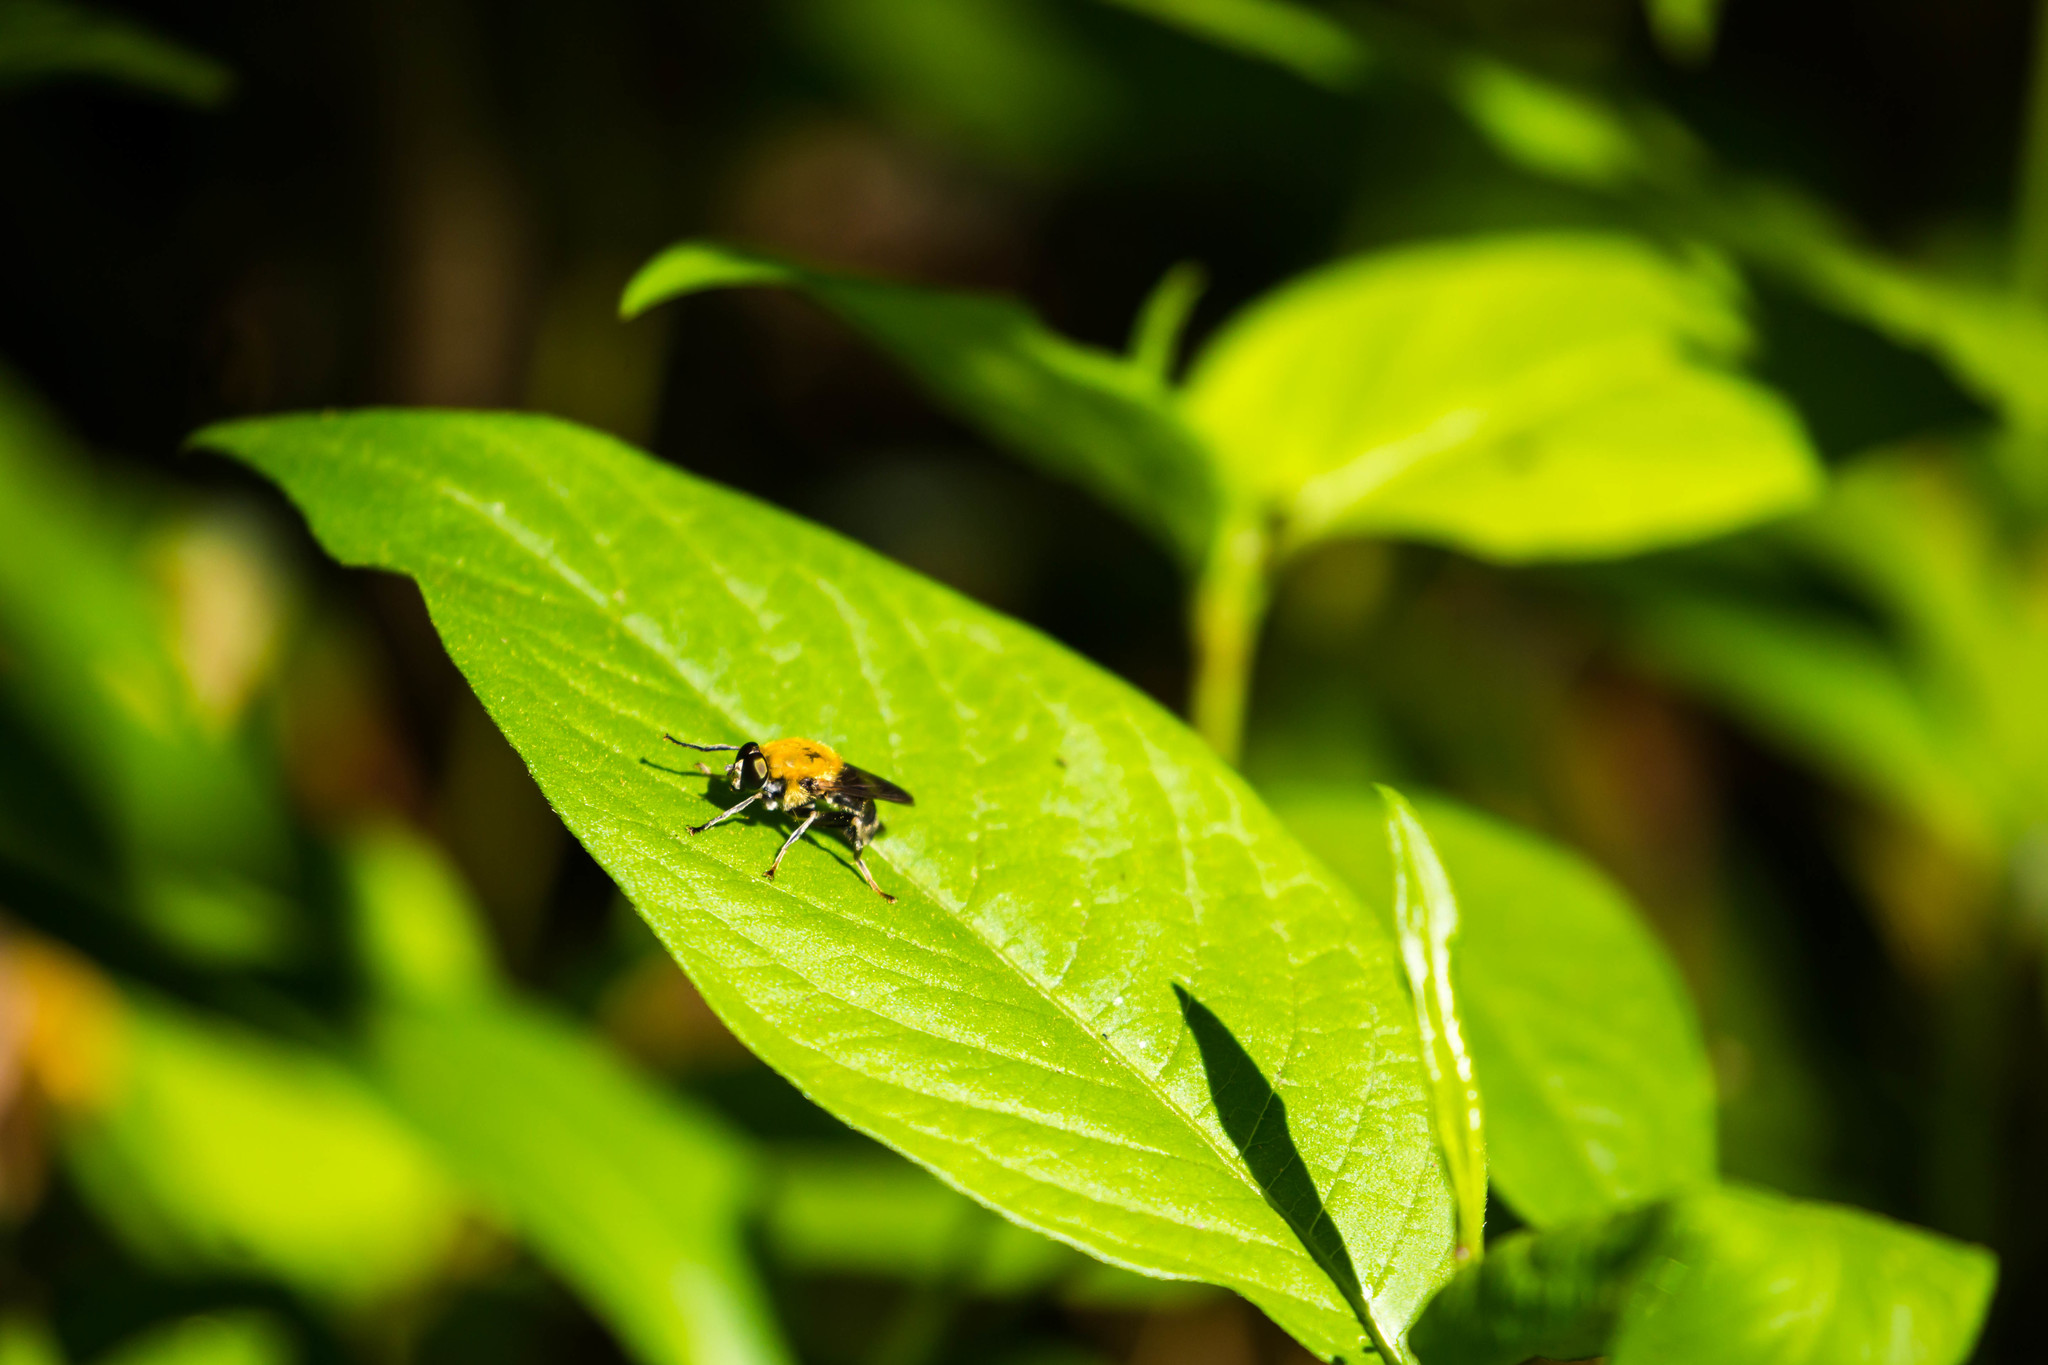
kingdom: Animalia
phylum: Arthropoda
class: Insecta
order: Diptera
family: Syrphidae
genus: Pterallastes
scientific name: Pterallastes thoracicus
